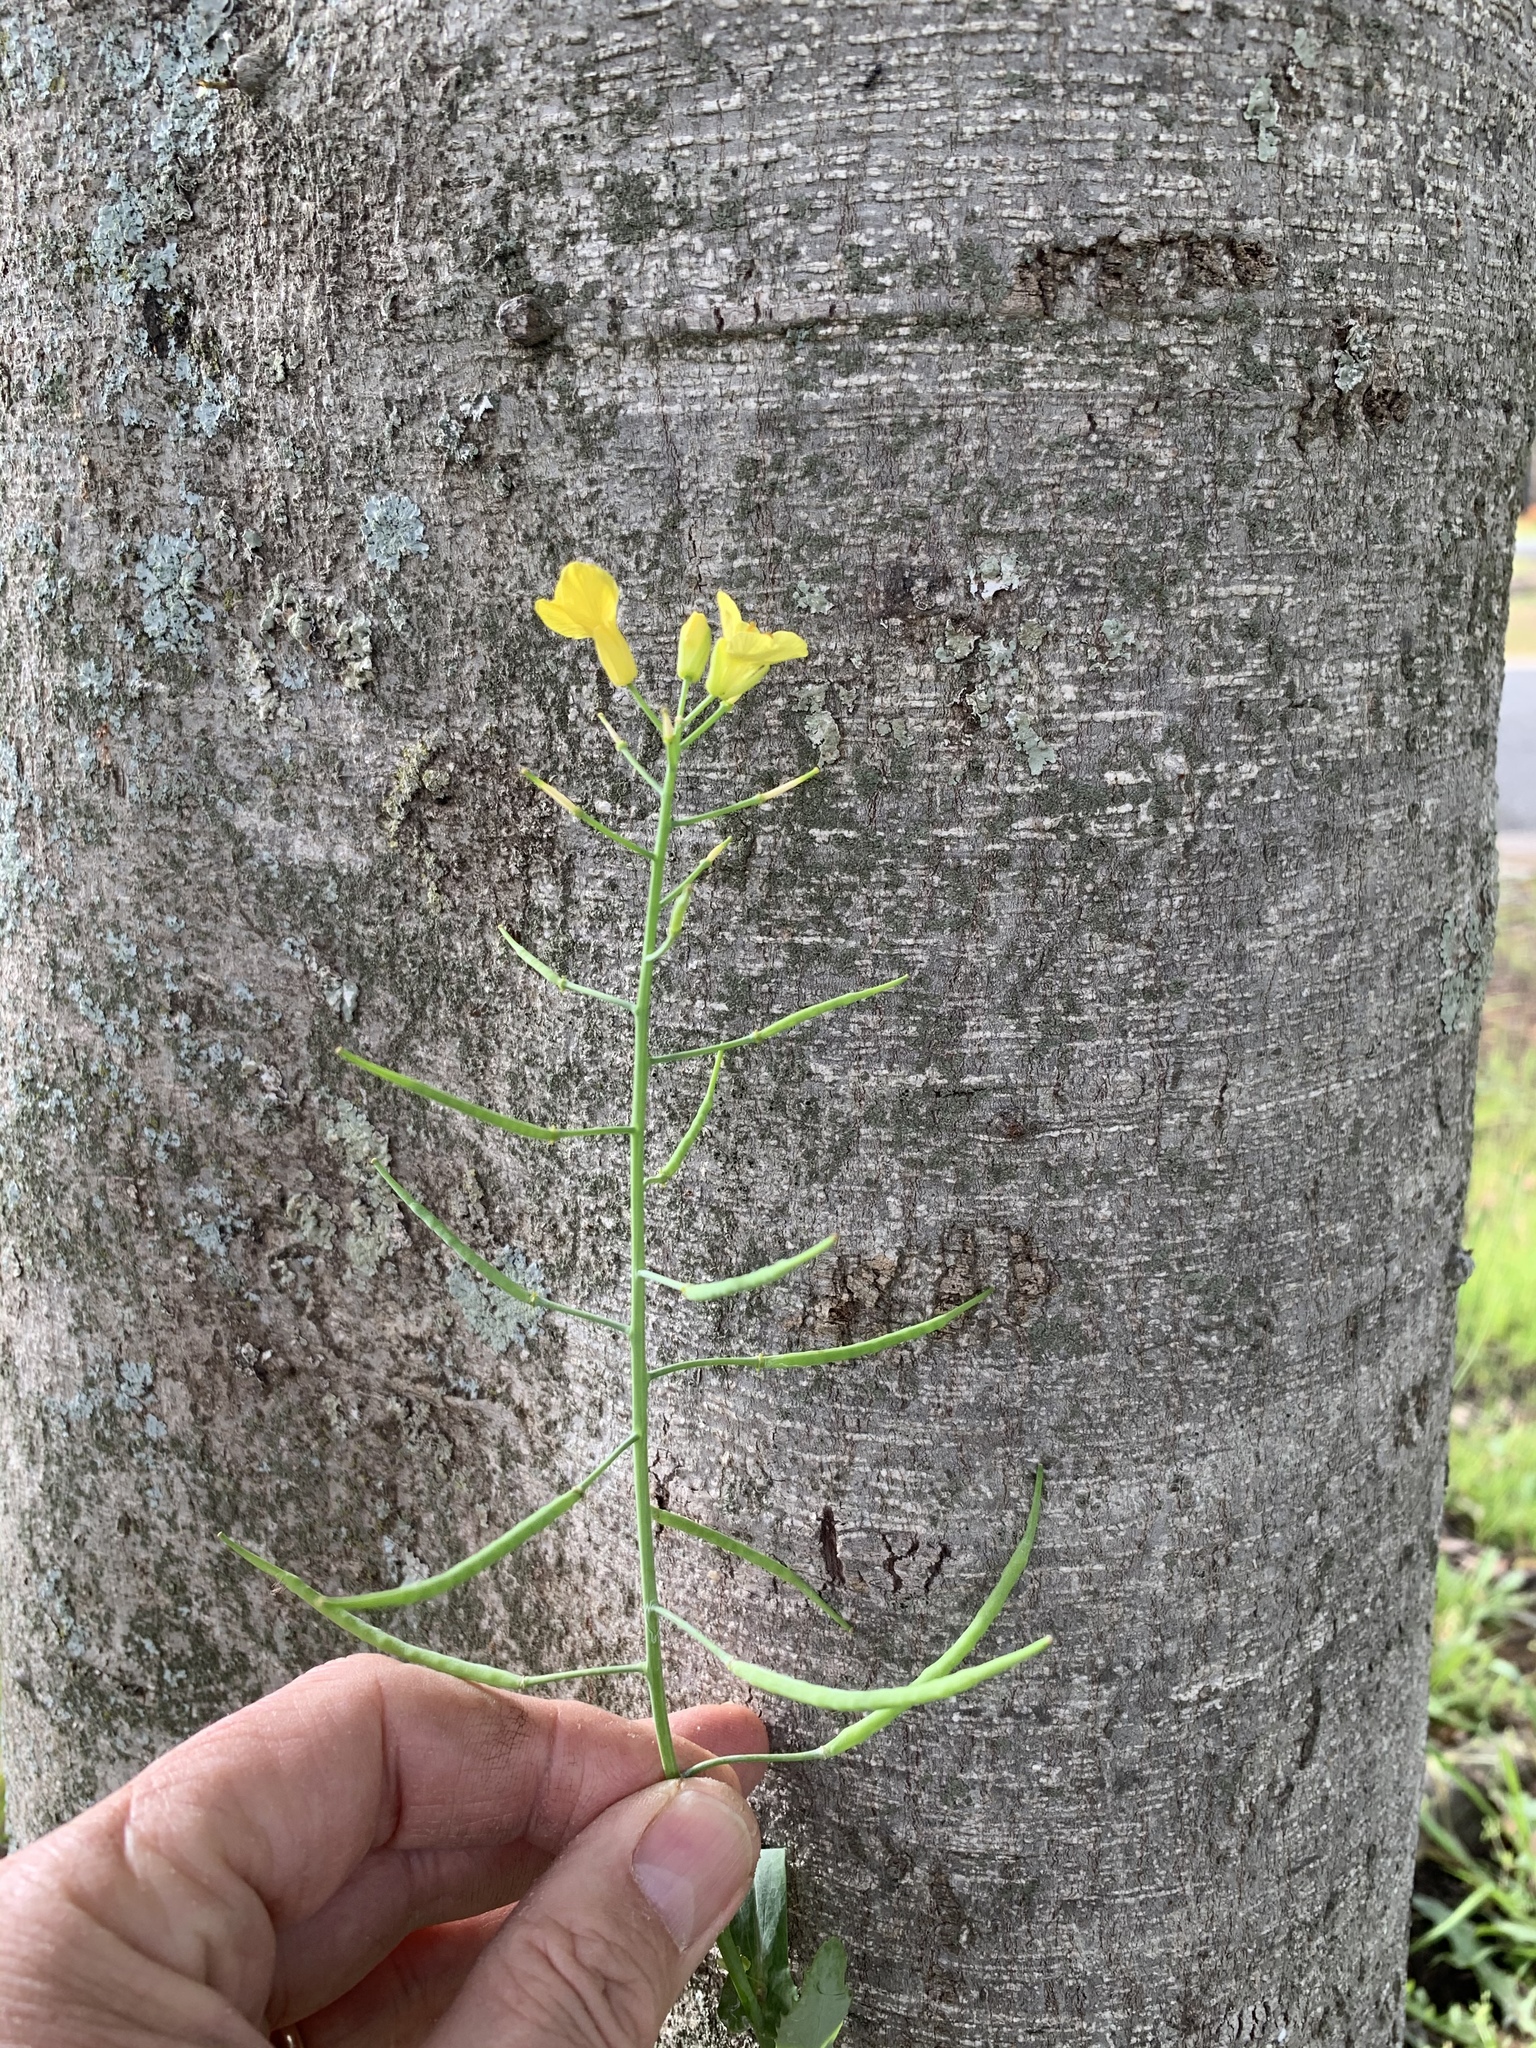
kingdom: Plantae
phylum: Tracheophyta
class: Magnoliopsida
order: Brassicales
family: Brassicaceae
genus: Brassica
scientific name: Brassica napus
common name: Rape
